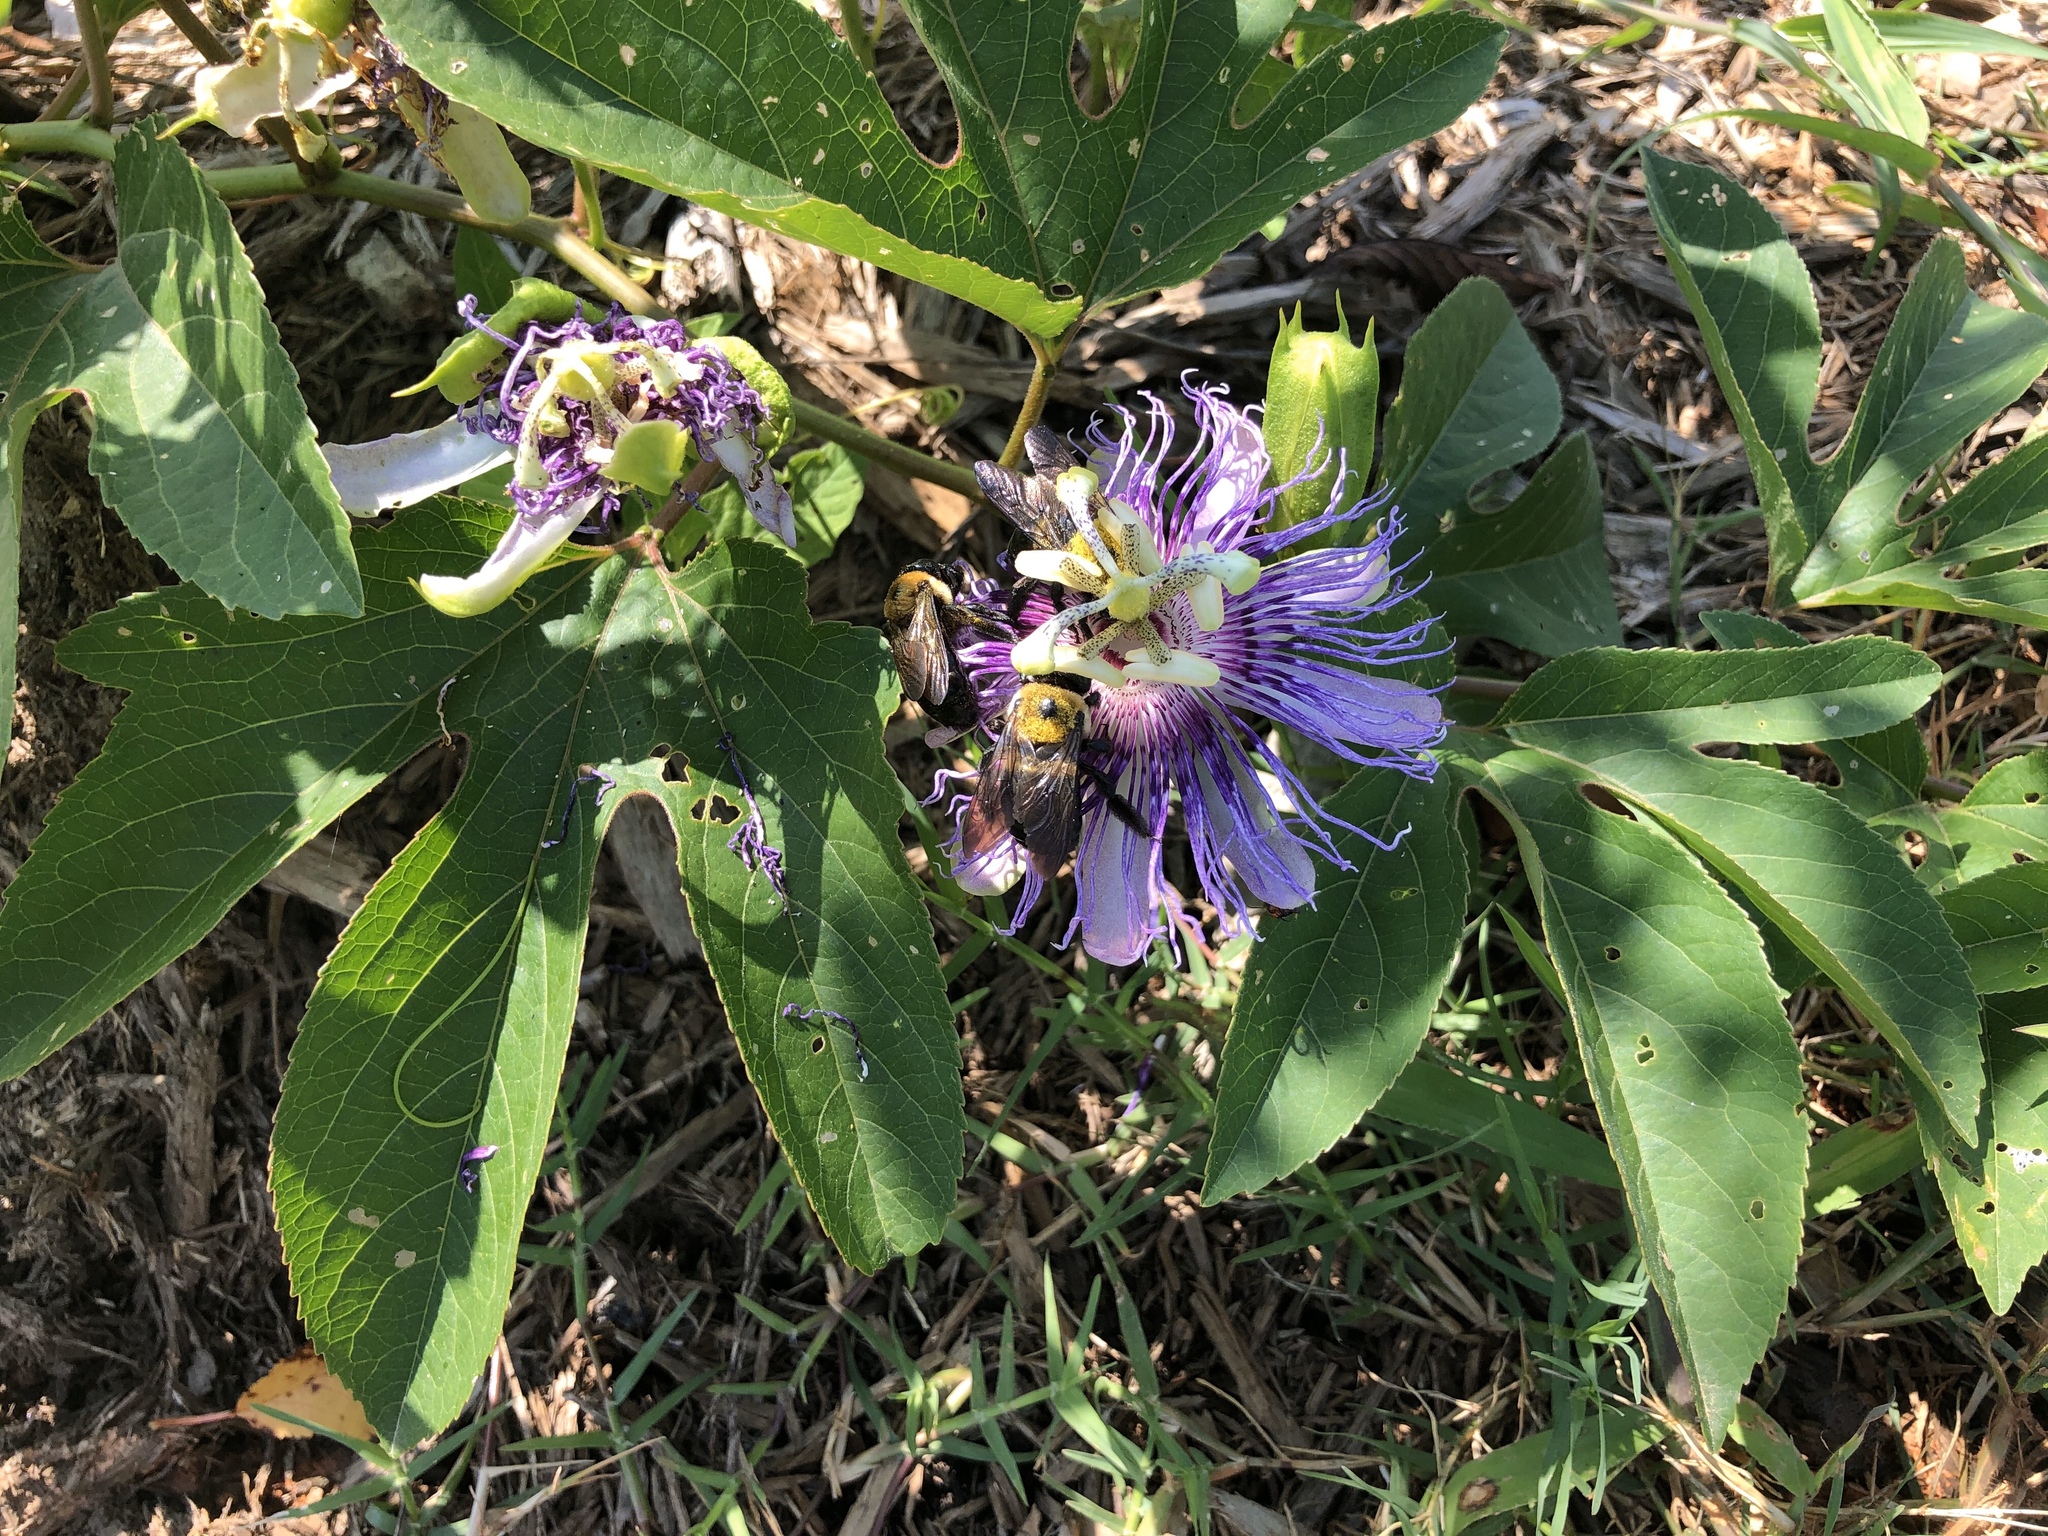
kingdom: Plantae
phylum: Tracheophyta
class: Magnoliopsida
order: Malpighiales
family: Passifloraceae
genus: Passiflora
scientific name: Passiflora incarnata
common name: Apricot-vine
